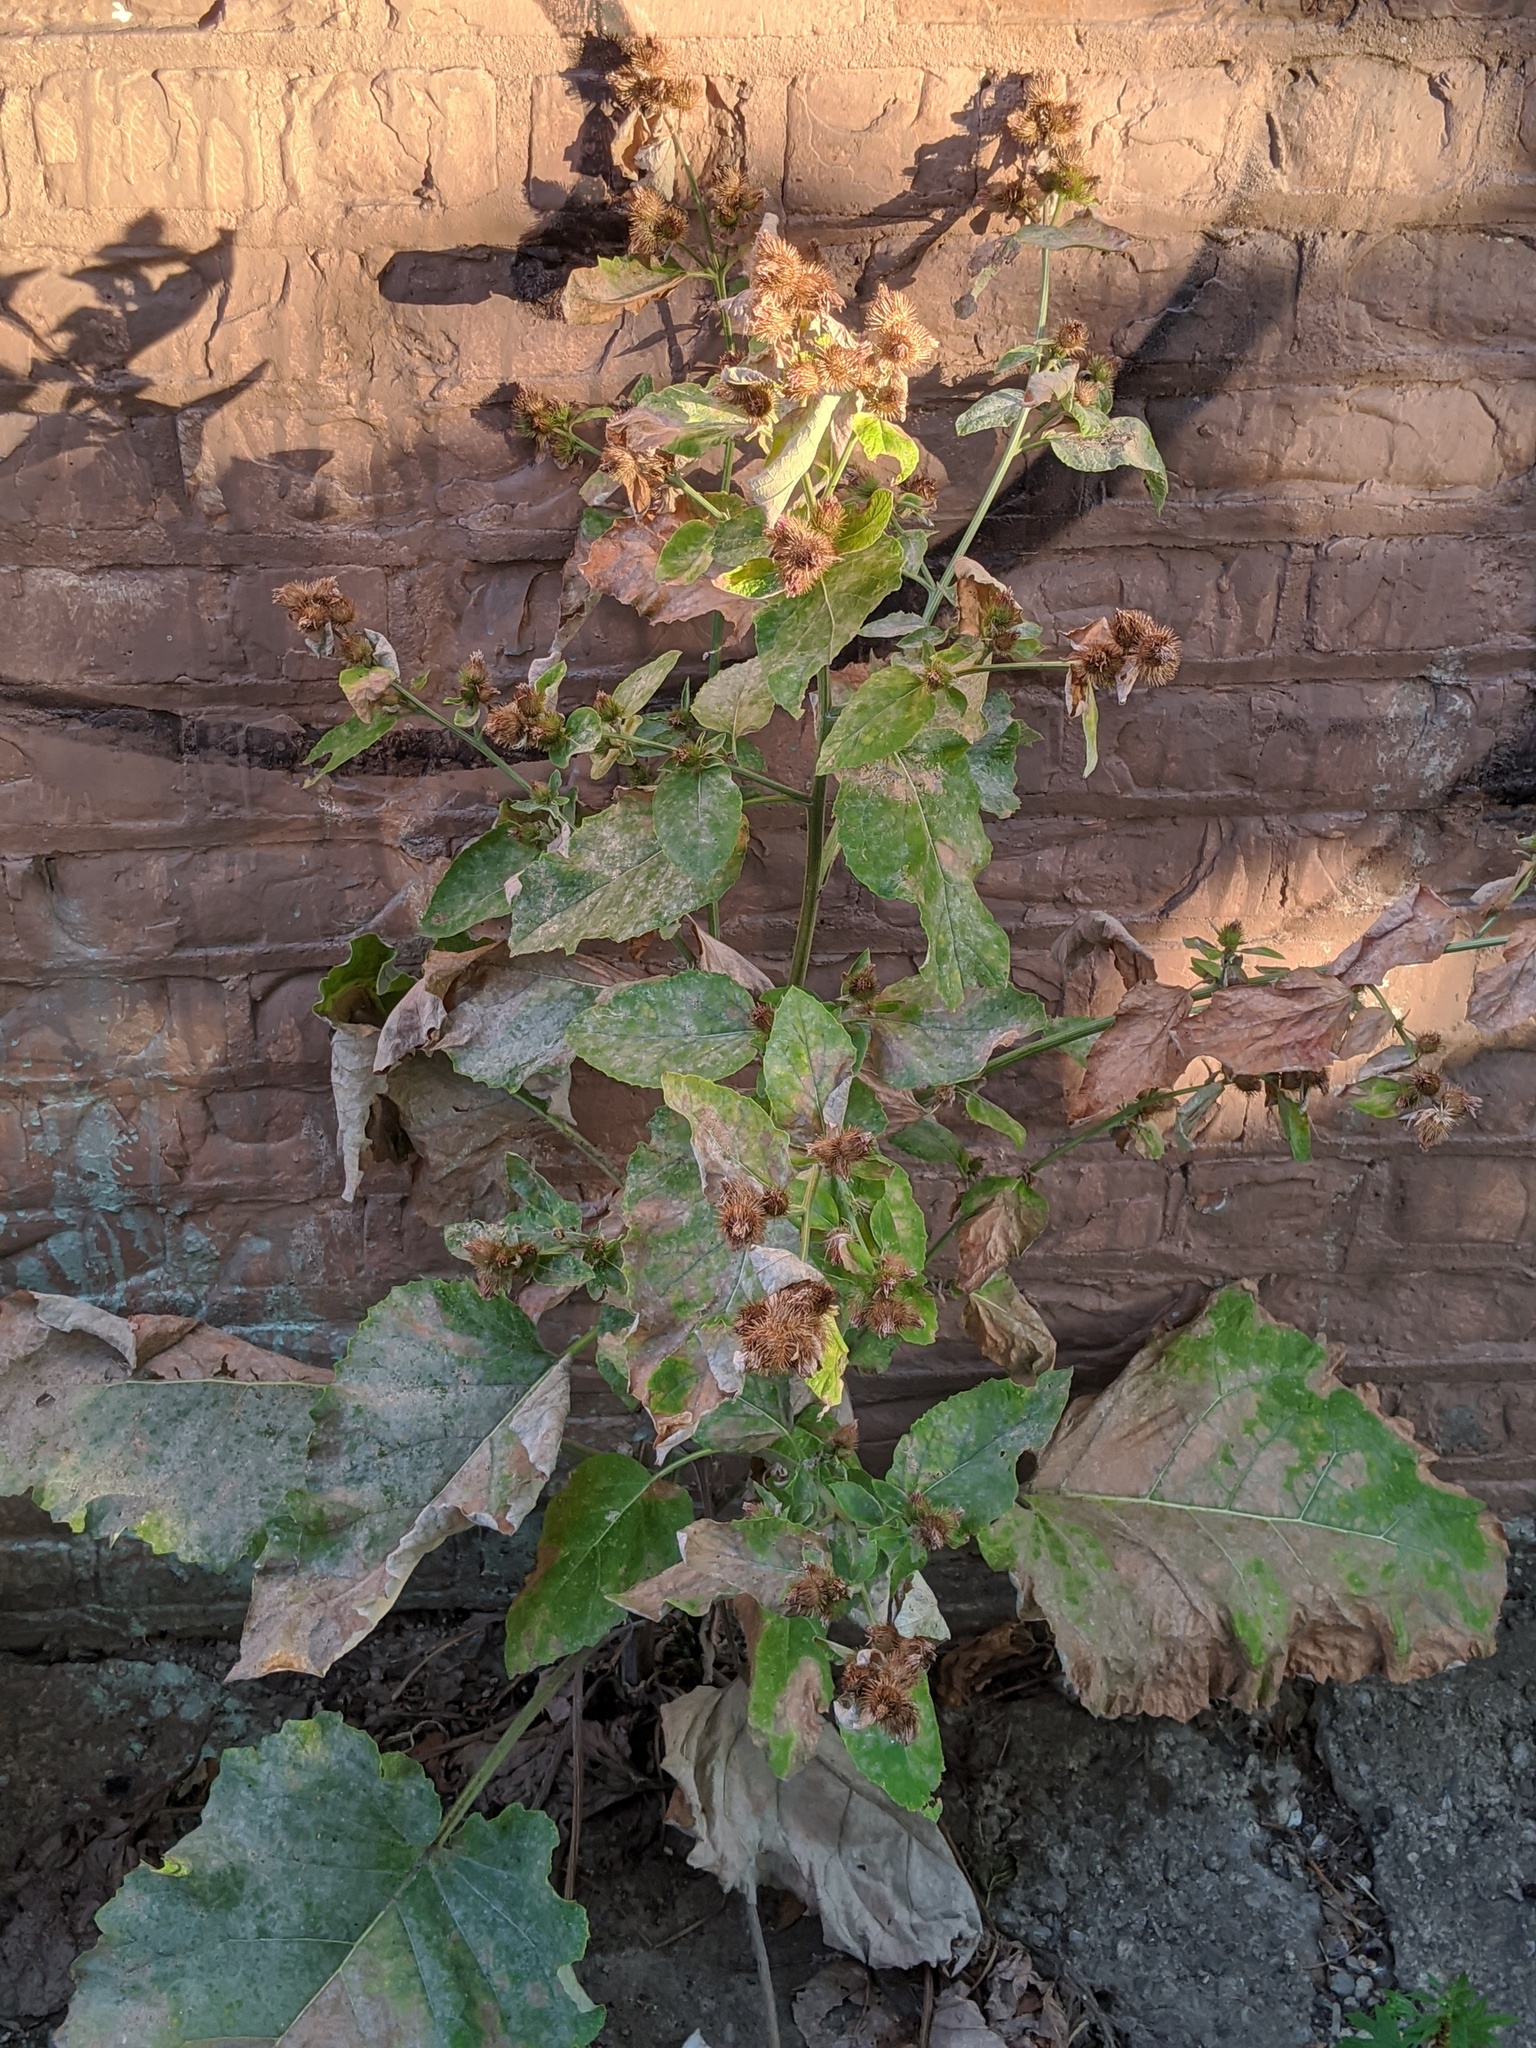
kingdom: Plantae
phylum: Tracheophyta
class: Magnoliopsida
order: Asterales
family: Asteraceae
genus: Arctium
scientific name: Arctium minus
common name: Lesser burdock
